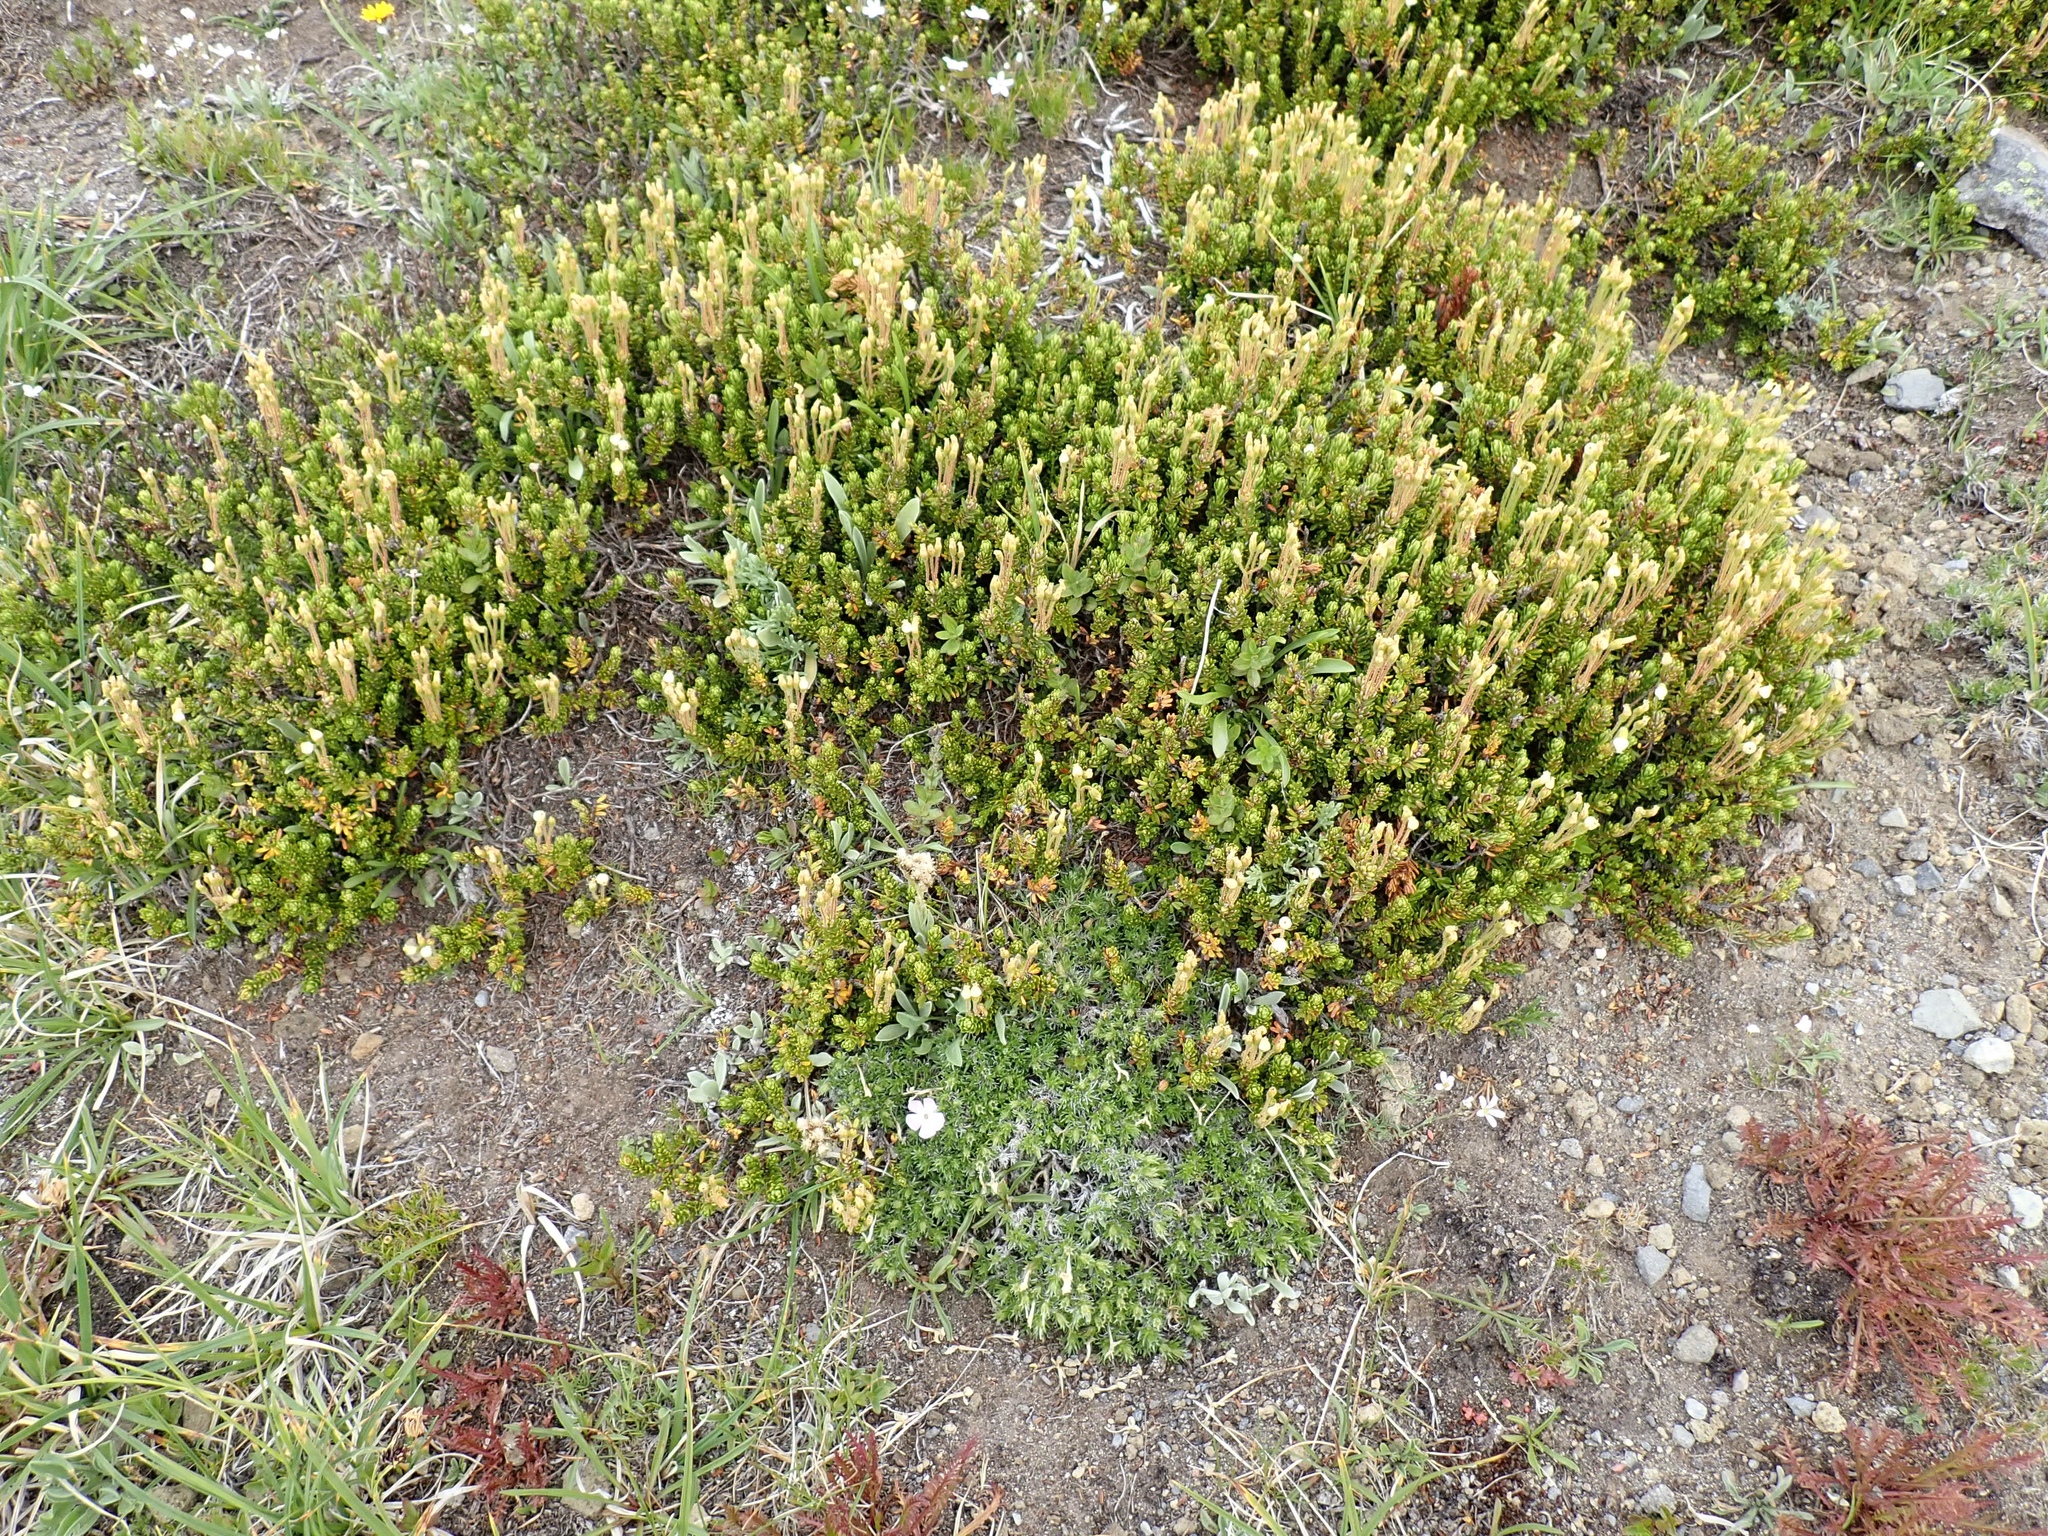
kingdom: Plantae
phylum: Tracheophyta
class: Magnoliopsida
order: Ericales
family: Ericaceae
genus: Phyllodoce
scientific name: Phyllodoce glanduliflora
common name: Cream mountain heather
